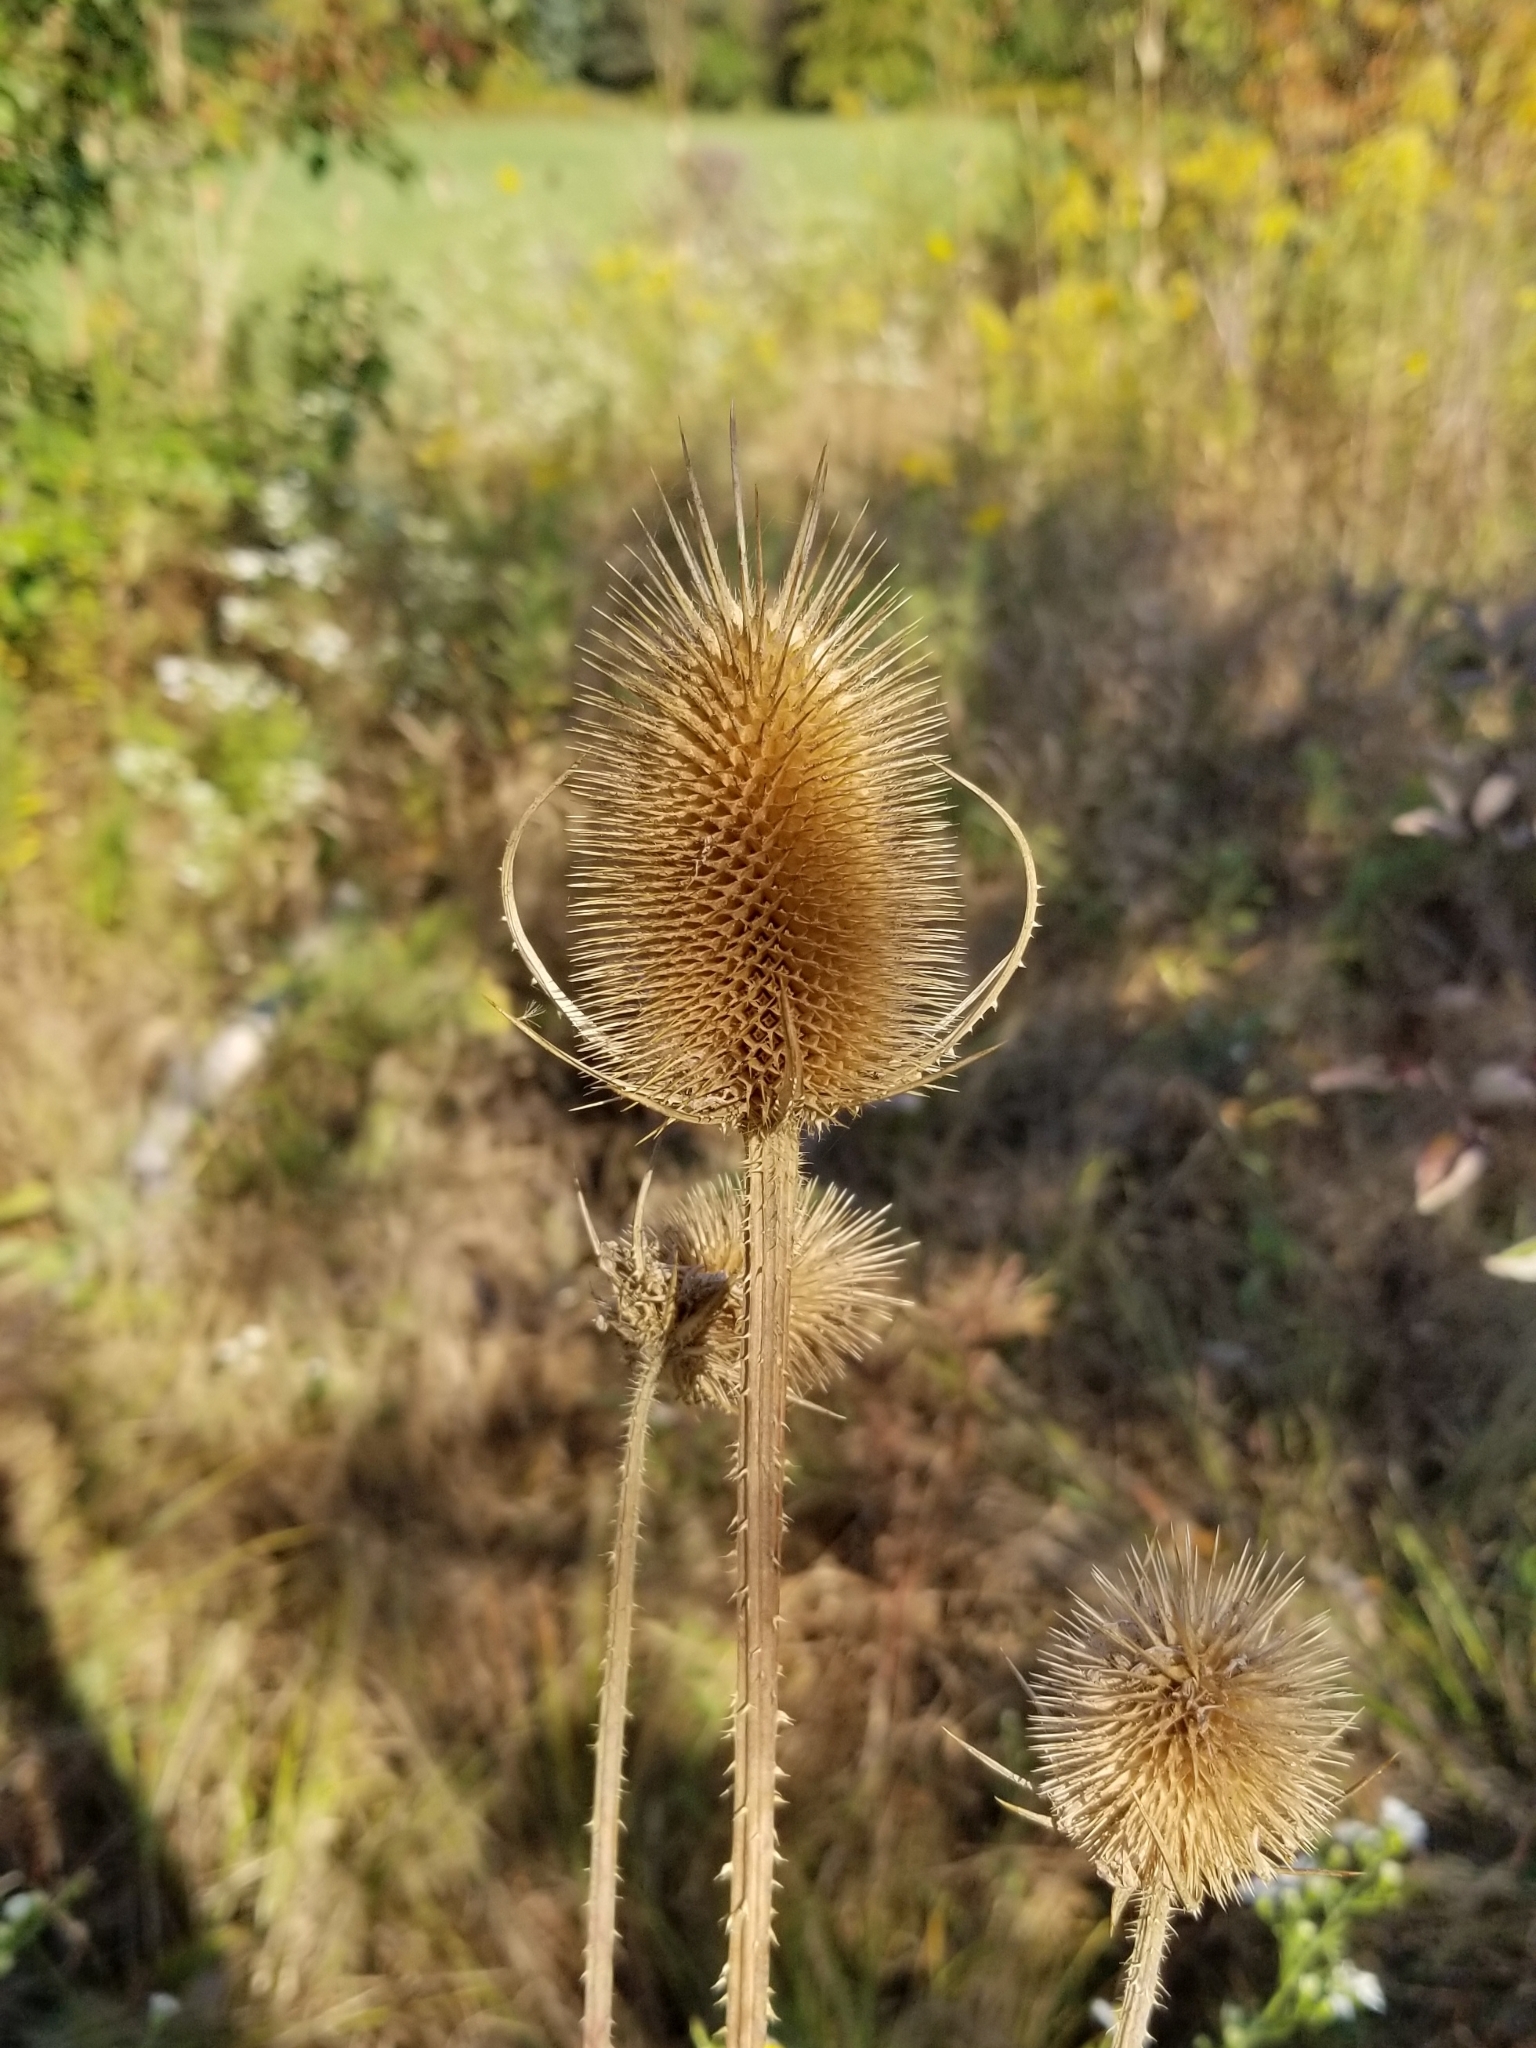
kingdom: Plantae
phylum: Tracheophyta
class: Magnoliopsida
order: Dipsacales
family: Caprifoliaceae
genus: Dipsacus
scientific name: Dipsacus fullonum
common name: Teasel
